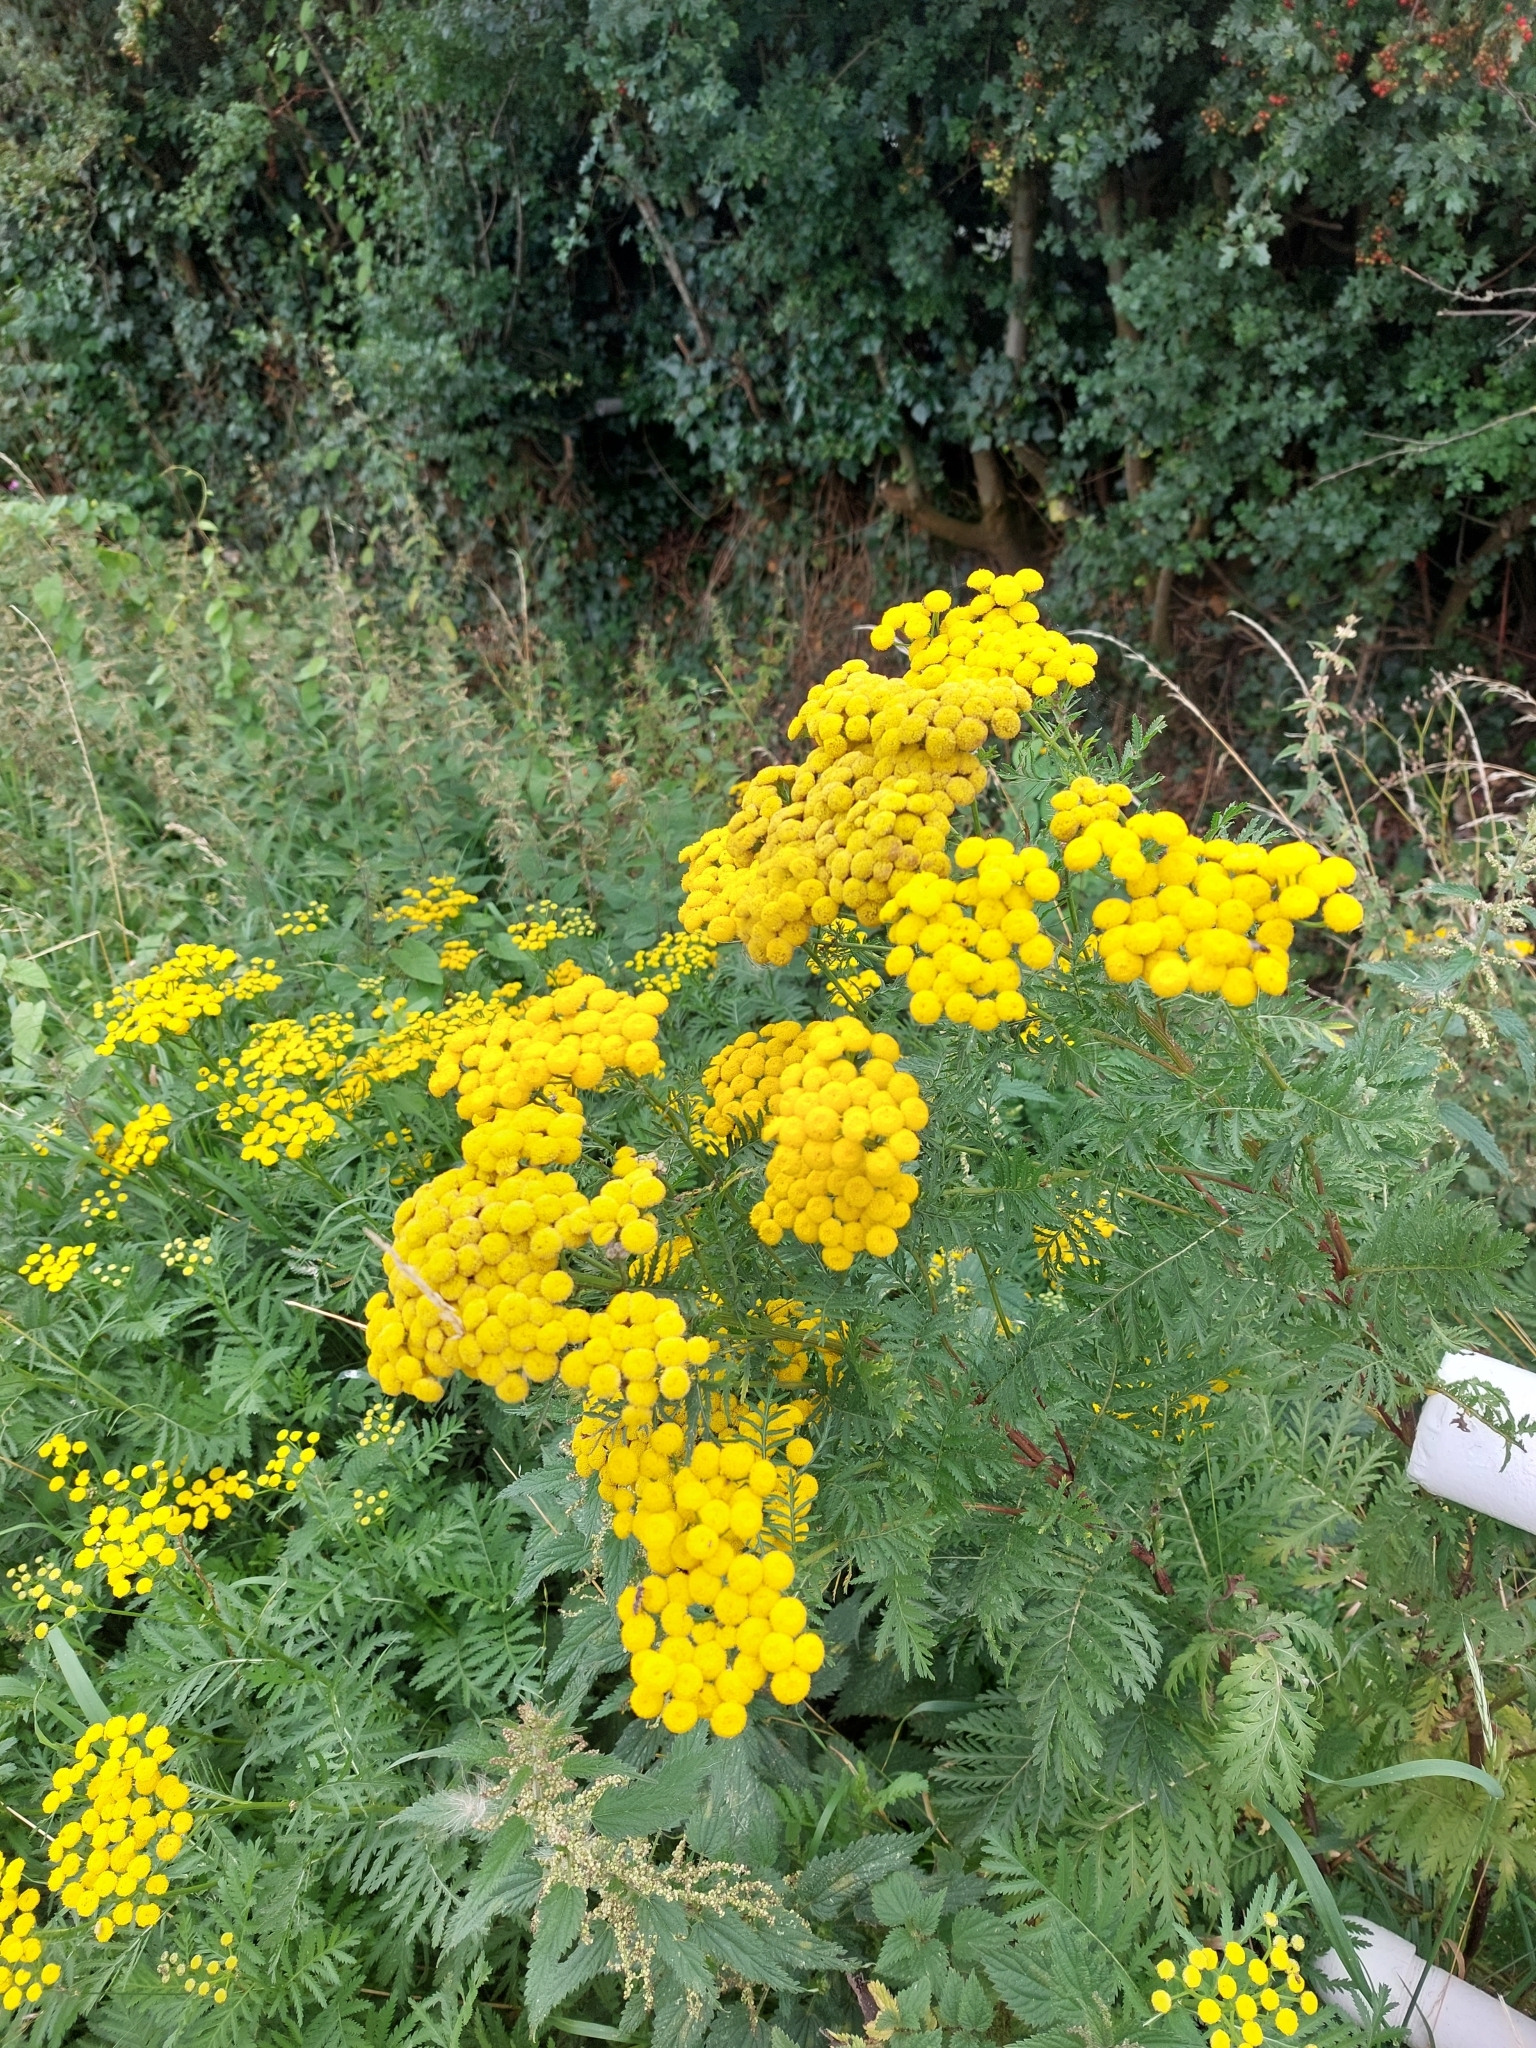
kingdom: Plantae
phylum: Tracheophyta
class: Magnoliopsida
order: Asterales
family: Asteraceae
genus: Tanacetum
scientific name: Tanacetum vulgare
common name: Common tansy
